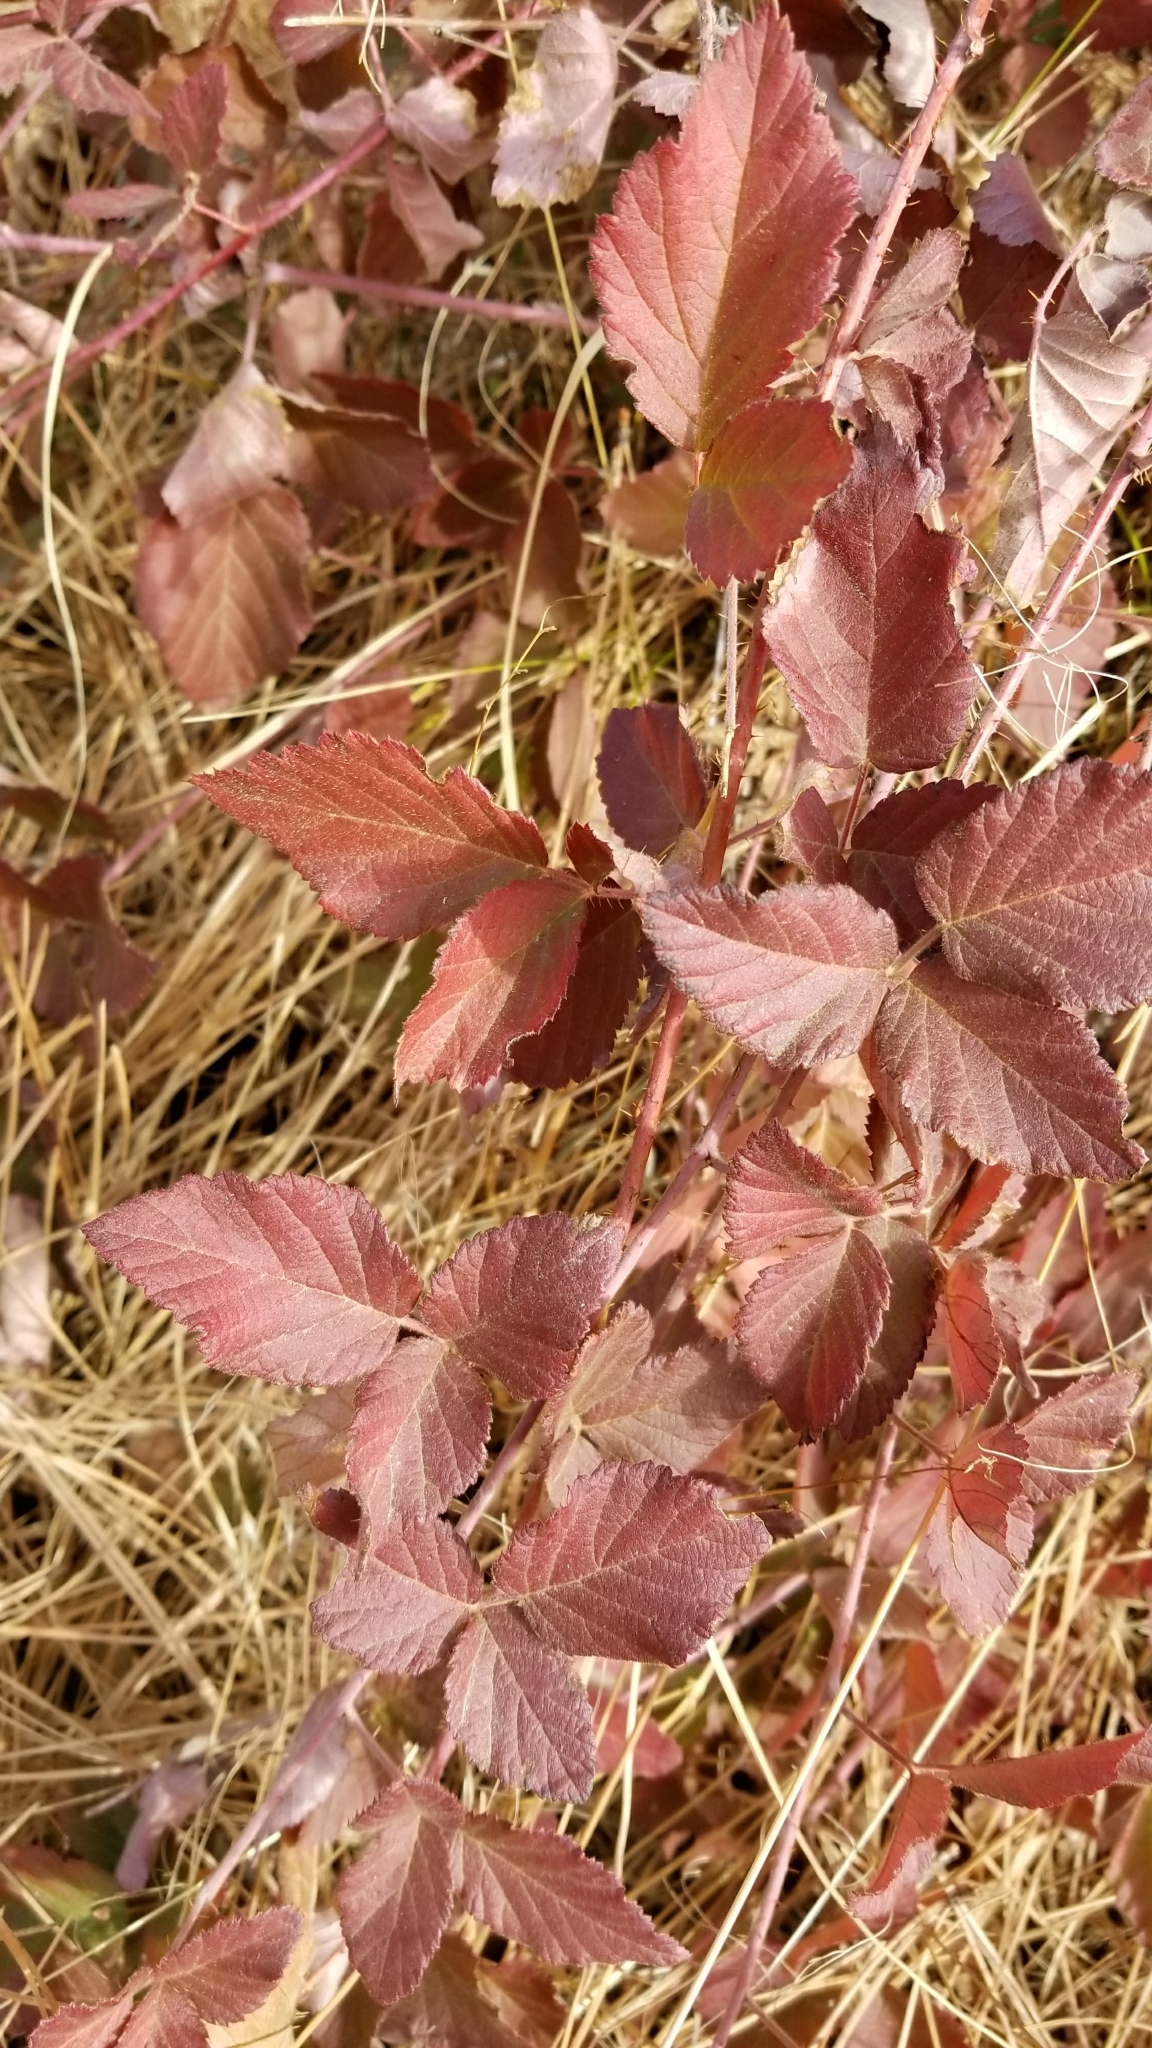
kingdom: Plantae
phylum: Tracheophyta
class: Magnoliopsida
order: Rosales
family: Rosaceae
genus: Rubus
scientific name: Rubus ursinus
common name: Pacific blackberry
